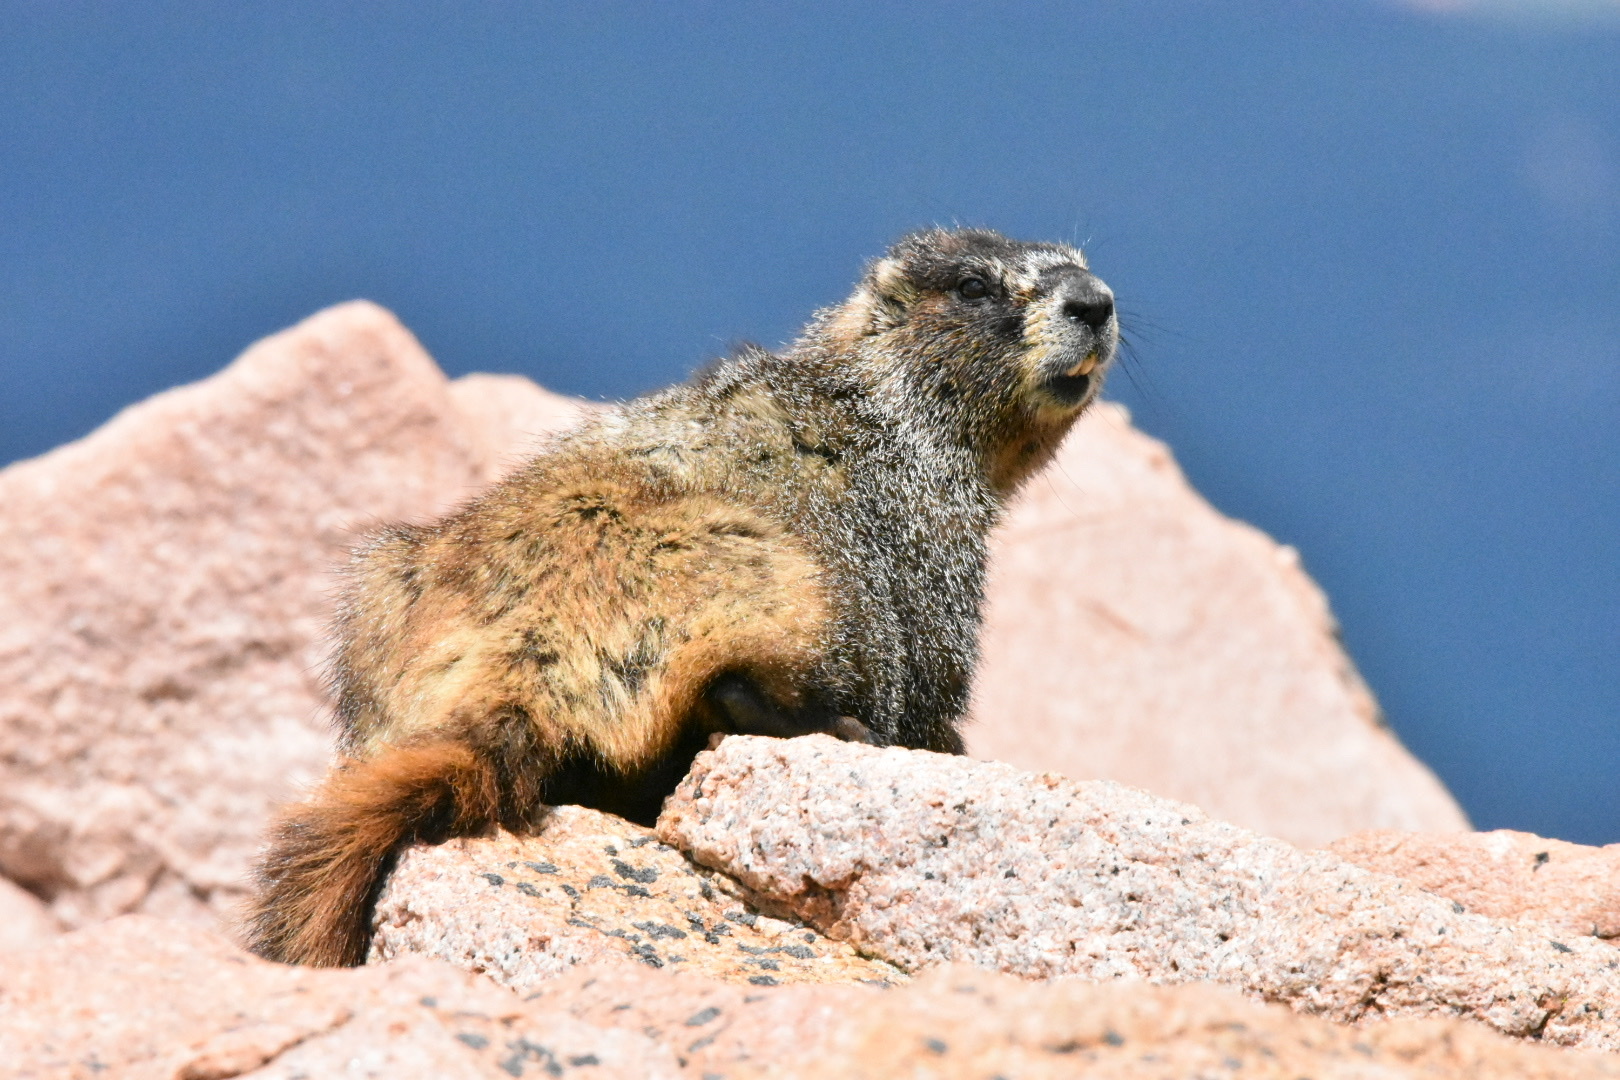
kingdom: Animalia
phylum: Chordata
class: Mammalia
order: Rodentia
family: Sciuridae
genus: Marmota
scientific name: Marmota flaviventris
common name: Yellow-bellied marmot
